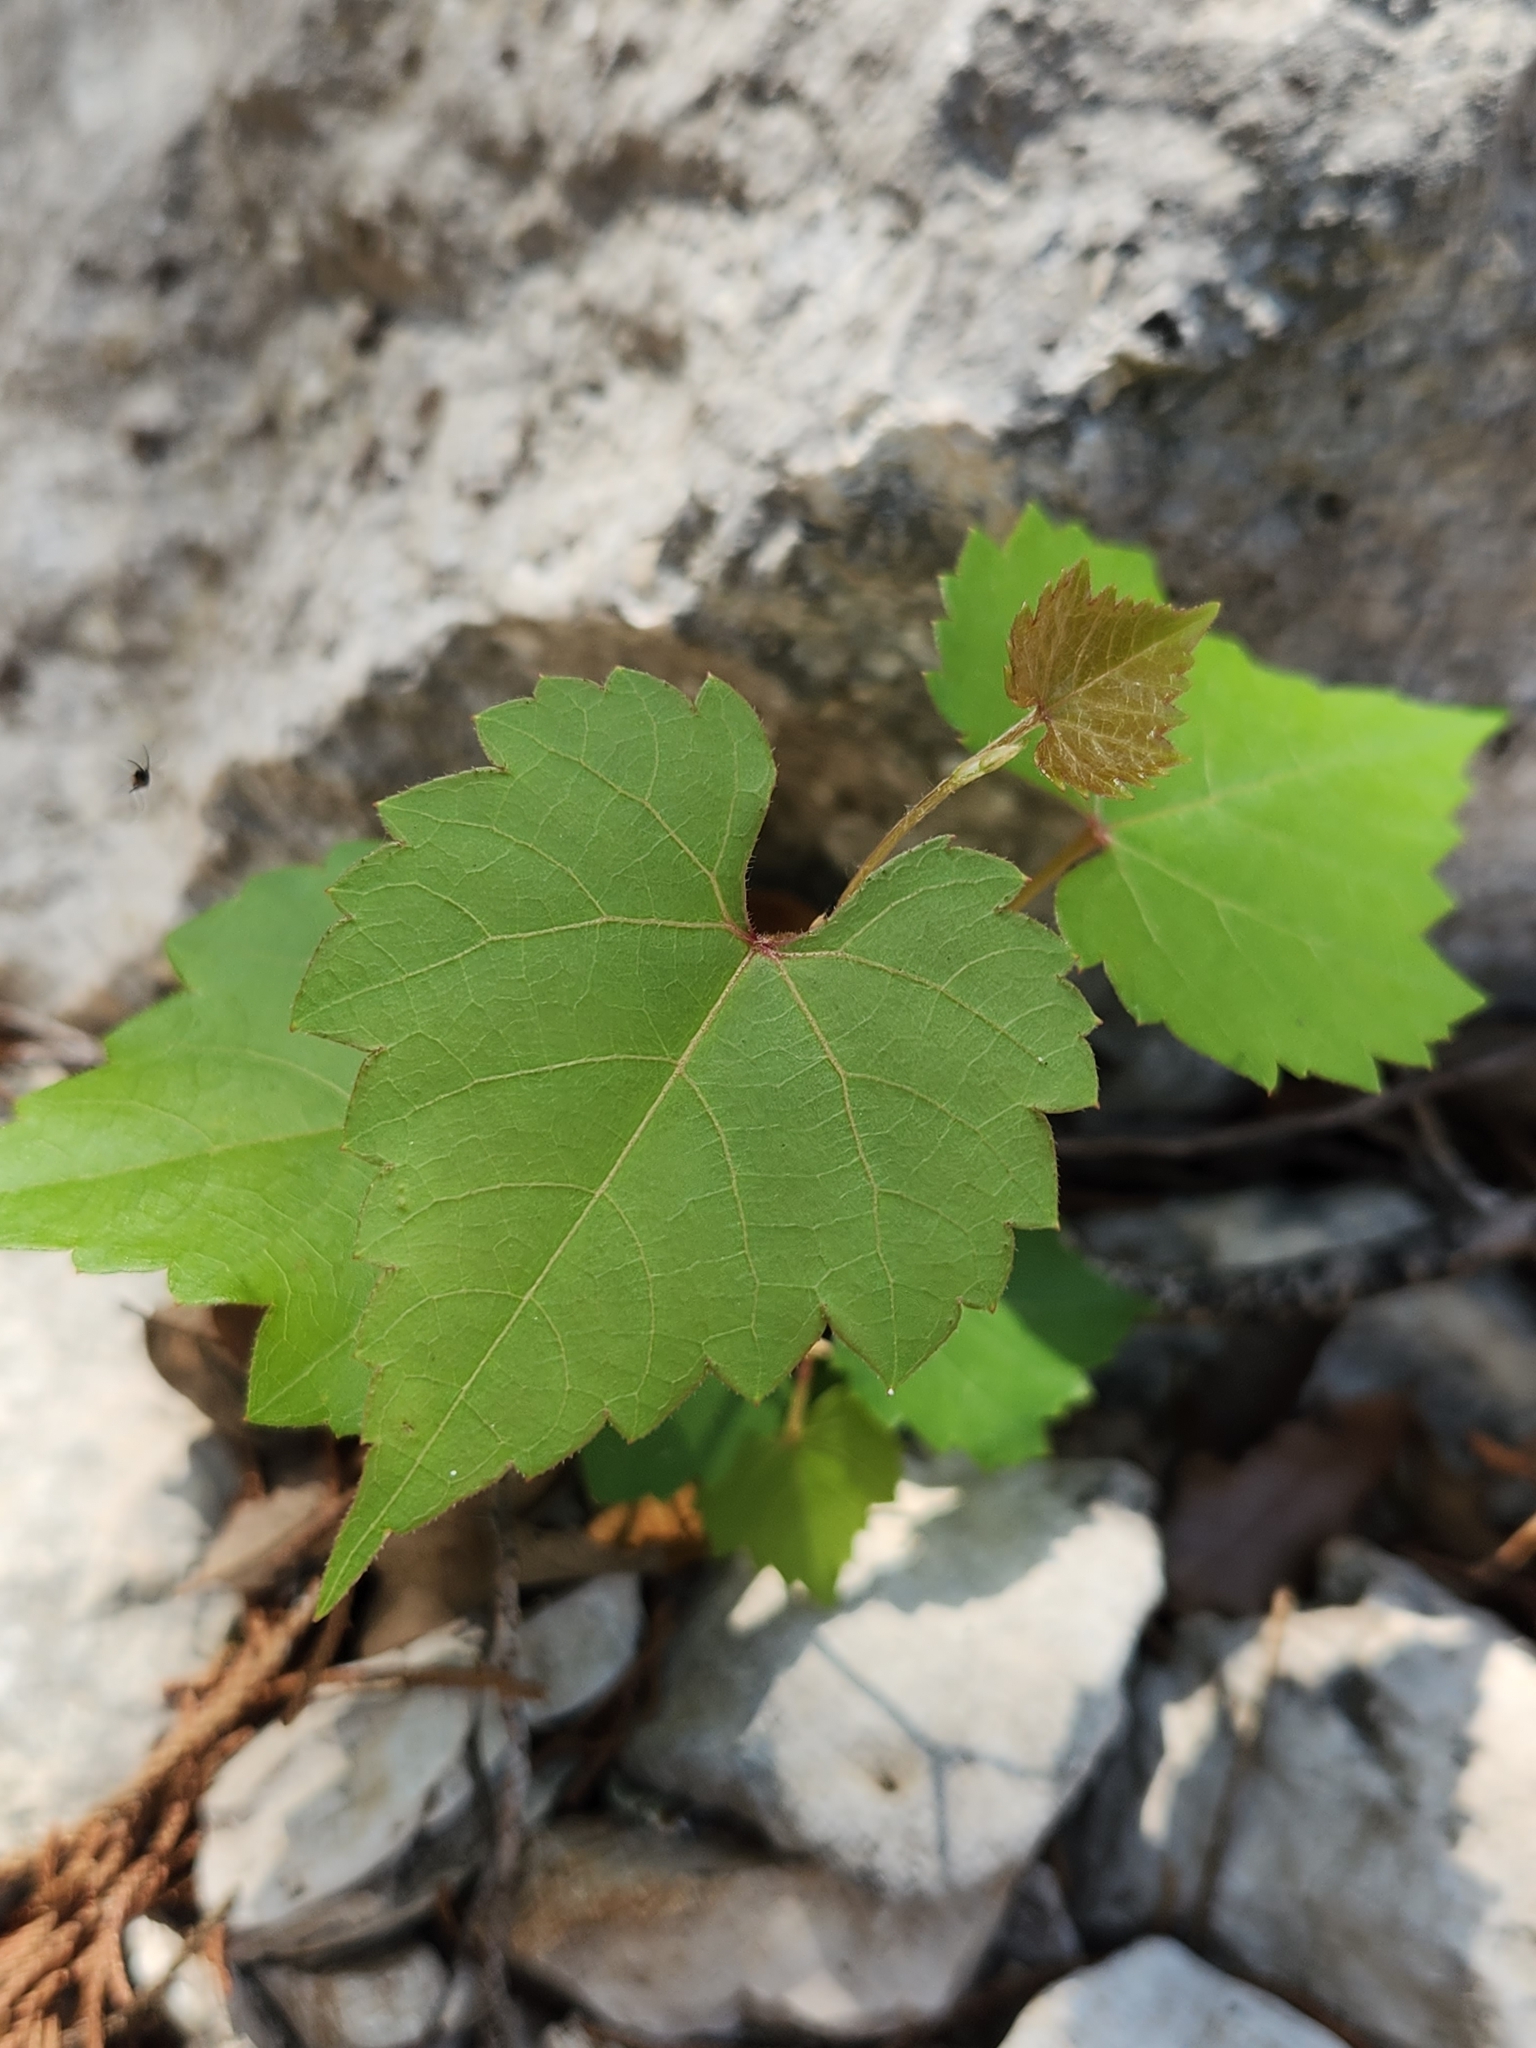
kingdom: Plantae
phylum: Tracheophyta
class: Magnoliopsida
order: Vitales
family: Vitaceae
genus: Vitis
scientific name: Vitis monticola
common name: Mountain grape
